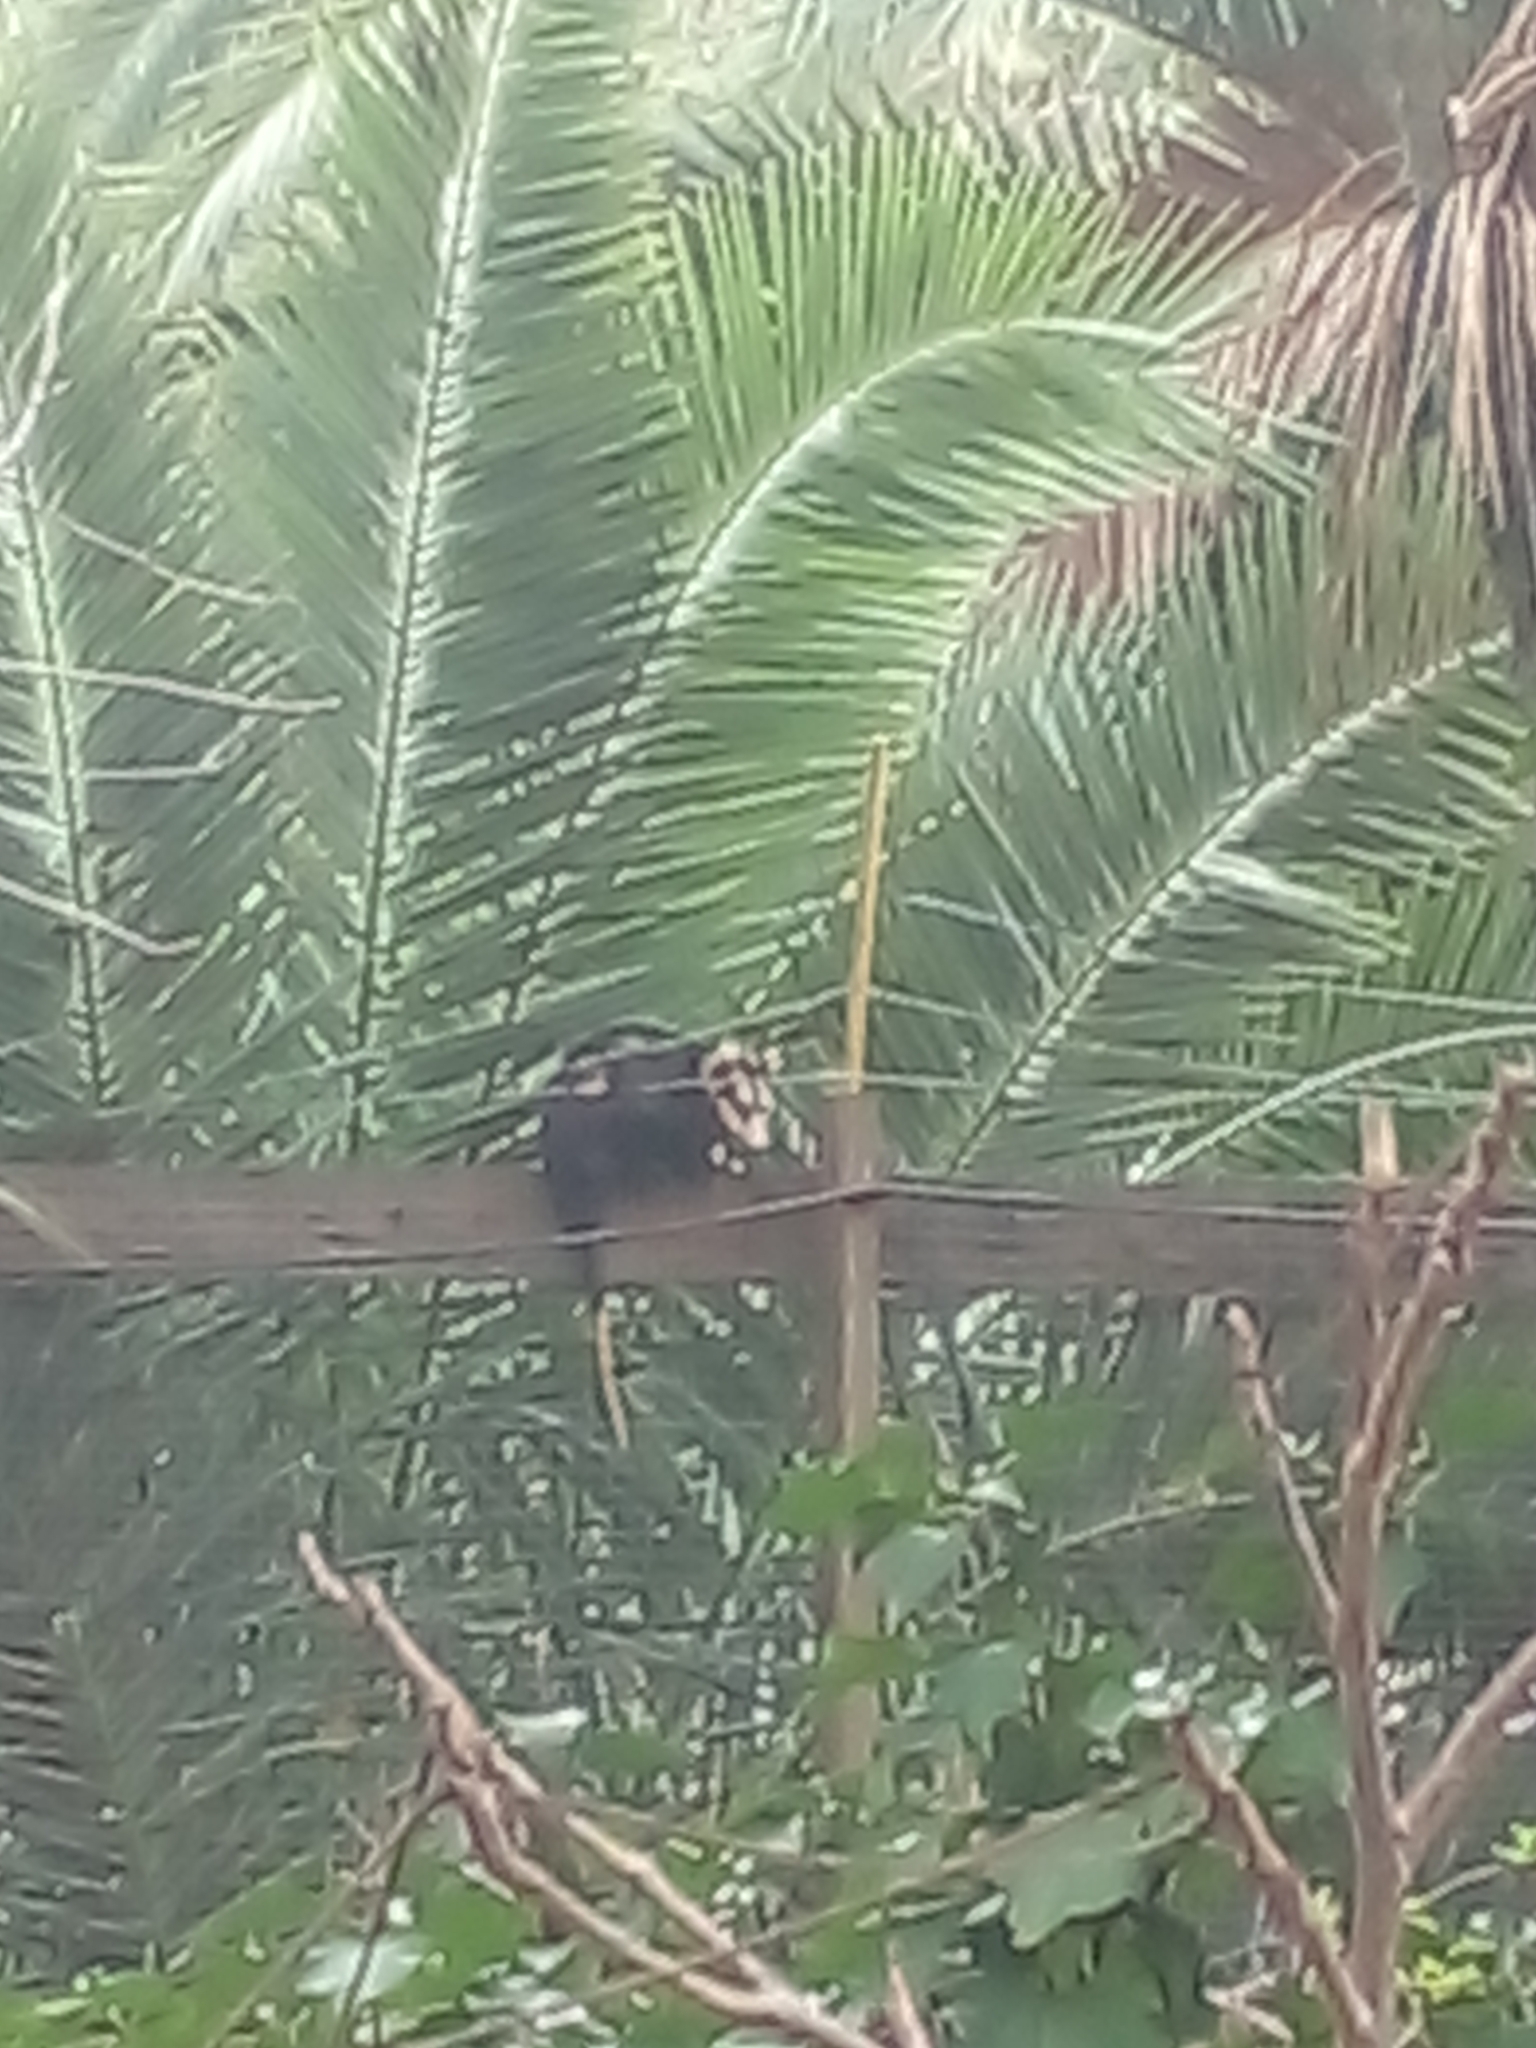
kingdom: Animalia
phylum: Chordata
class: Mammalia
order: Didelphimorphia
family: Didelphidae
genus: Didelphis
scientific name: Didelphis albiventris
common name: White-eared opossum
